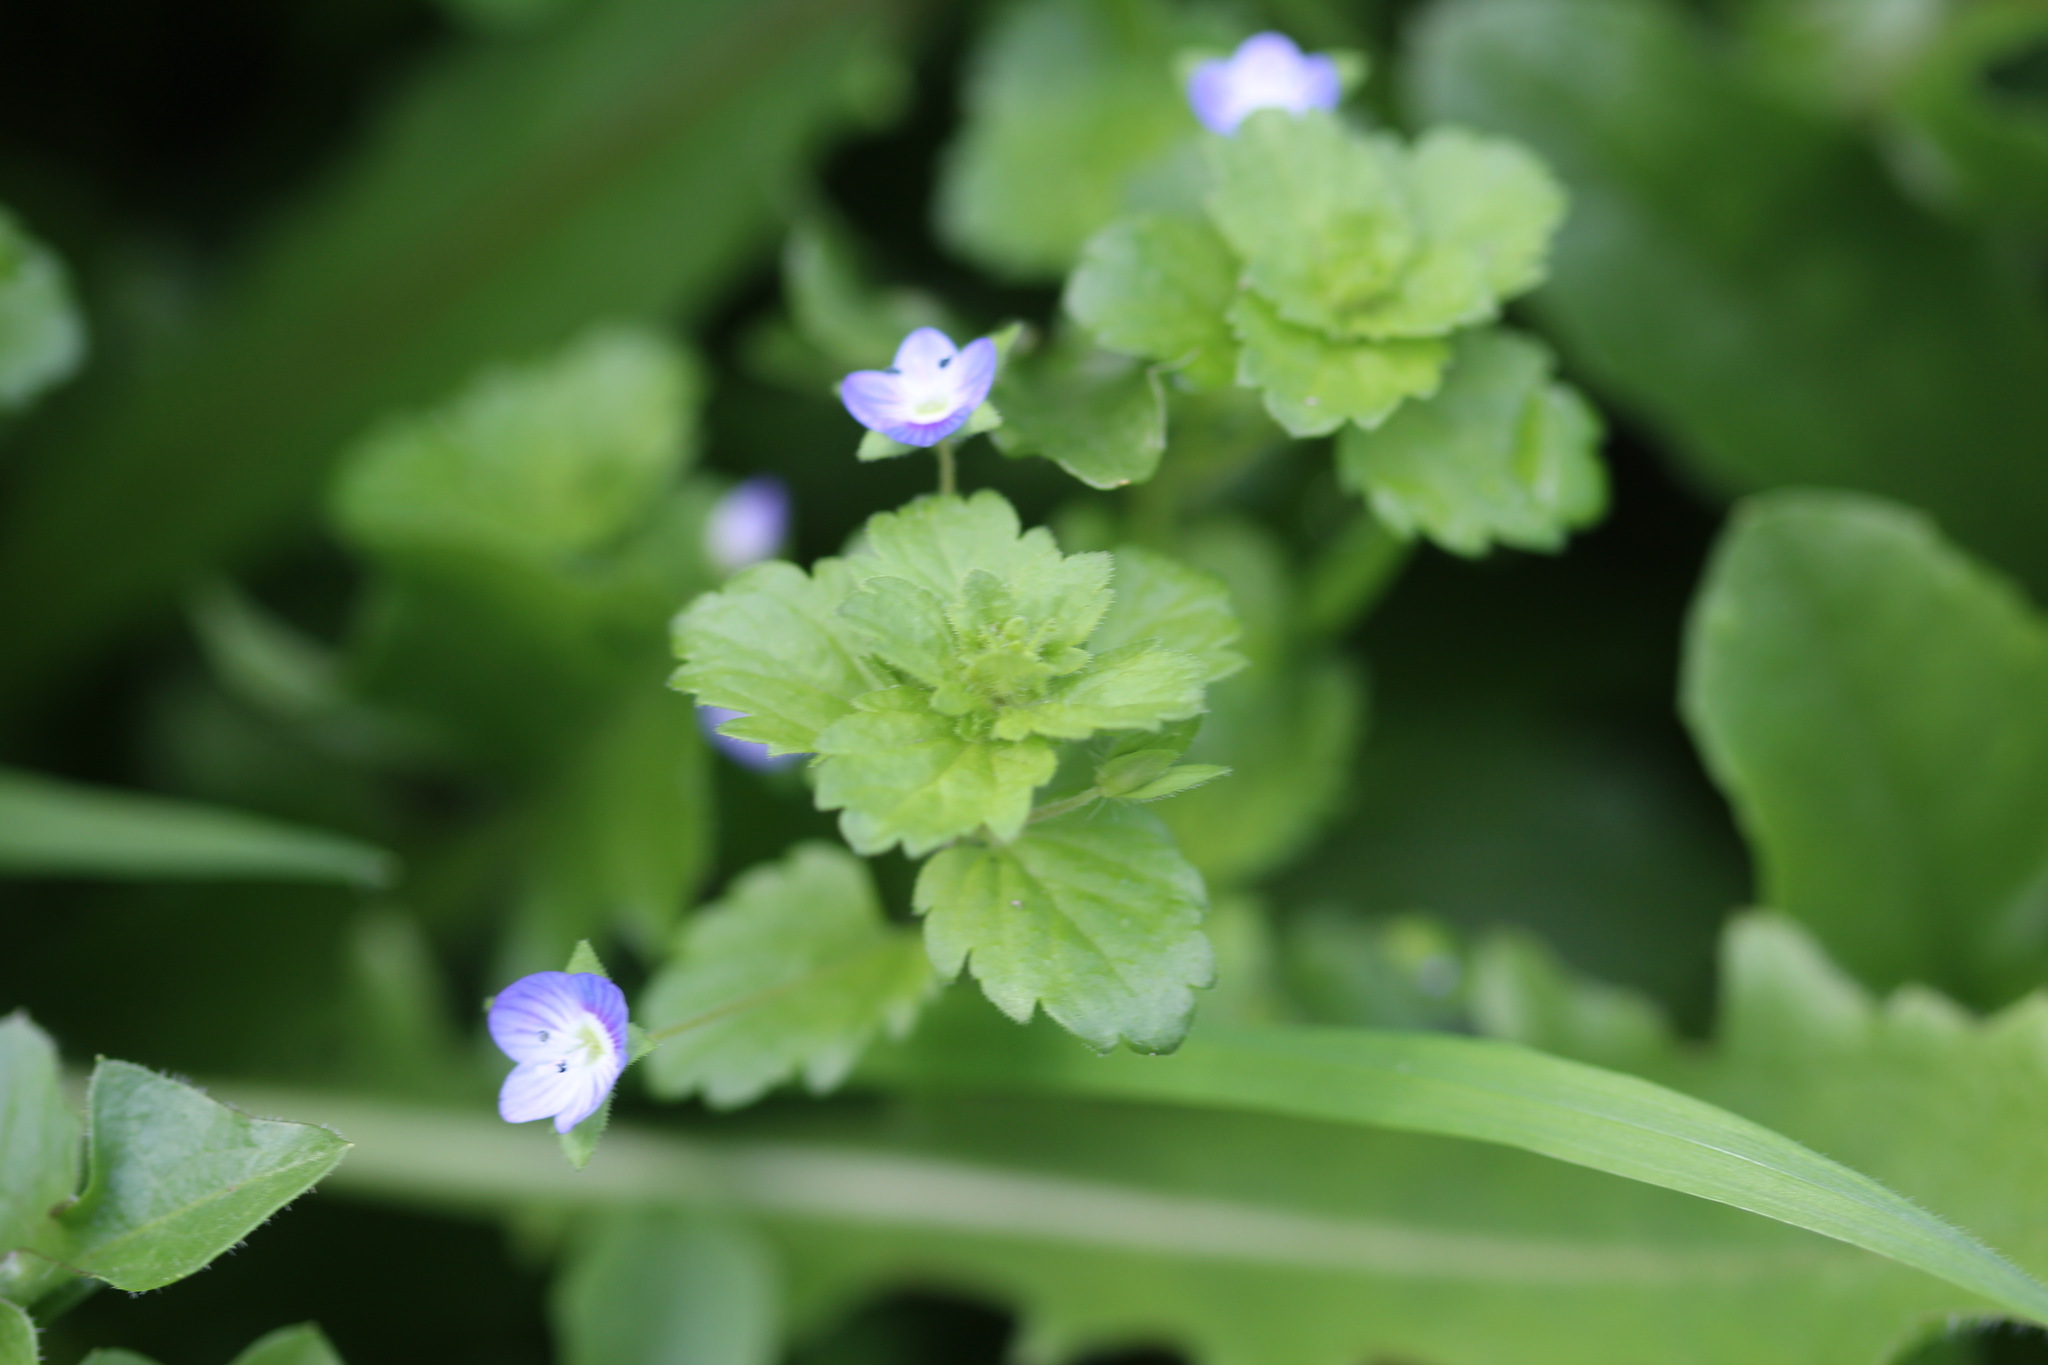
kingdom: Plantae
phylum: Tracheophyta
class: Magnoliopsida
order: Lamiales
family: Plantaginaceae
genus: Veronica
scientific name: Veronica persica
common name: Common field-speedwell
